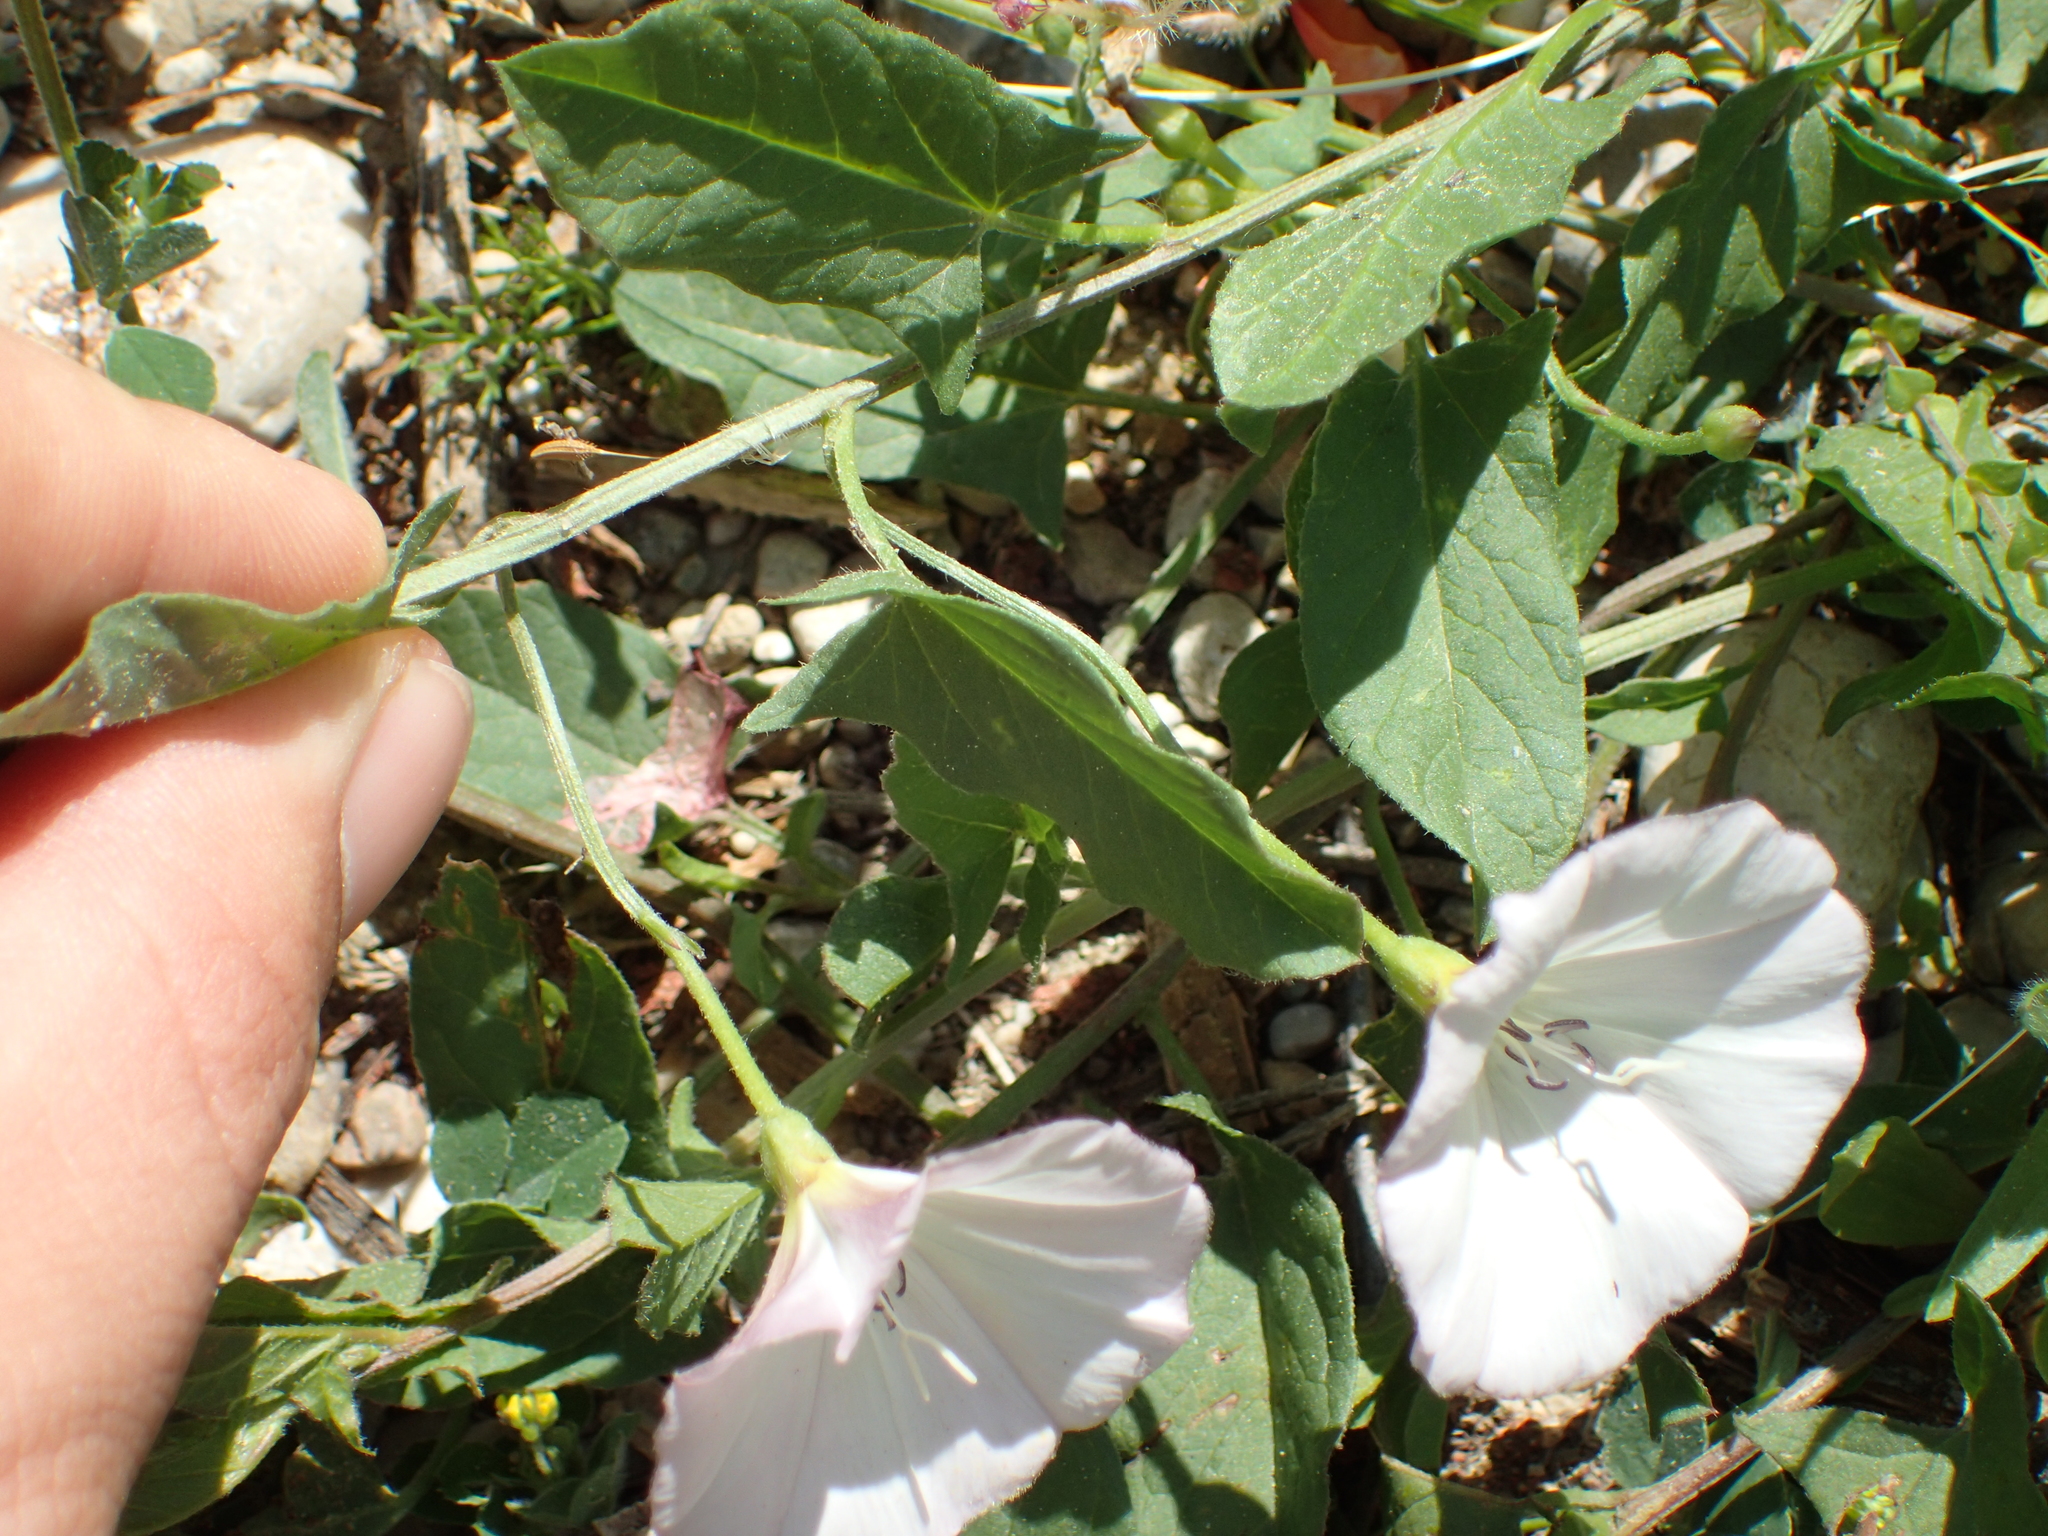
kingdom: Plantae
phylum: Tracheophyta
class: Magnoliopsida
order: Solanales
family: Convolvulaceae
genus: Convolvulus
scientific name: Convolvulus arvensis
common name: Field bindweed
